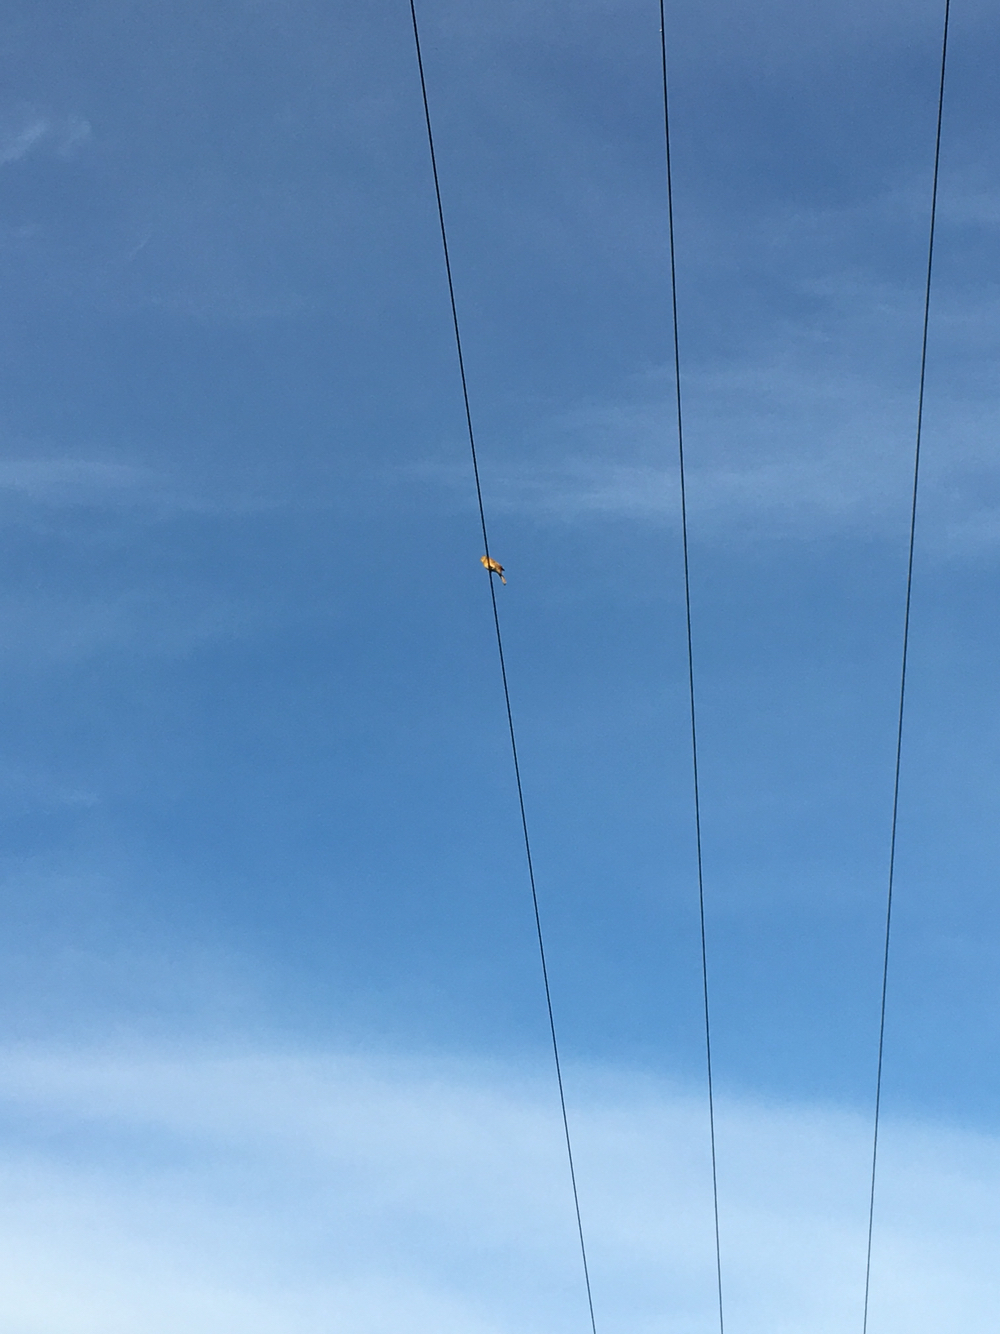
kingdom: Animalia
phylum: Chordata
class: Aves
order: Passeriformes
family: Emberizidae
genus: Emberiza
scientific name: Emberiza citrinella
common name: Yellowhammer
